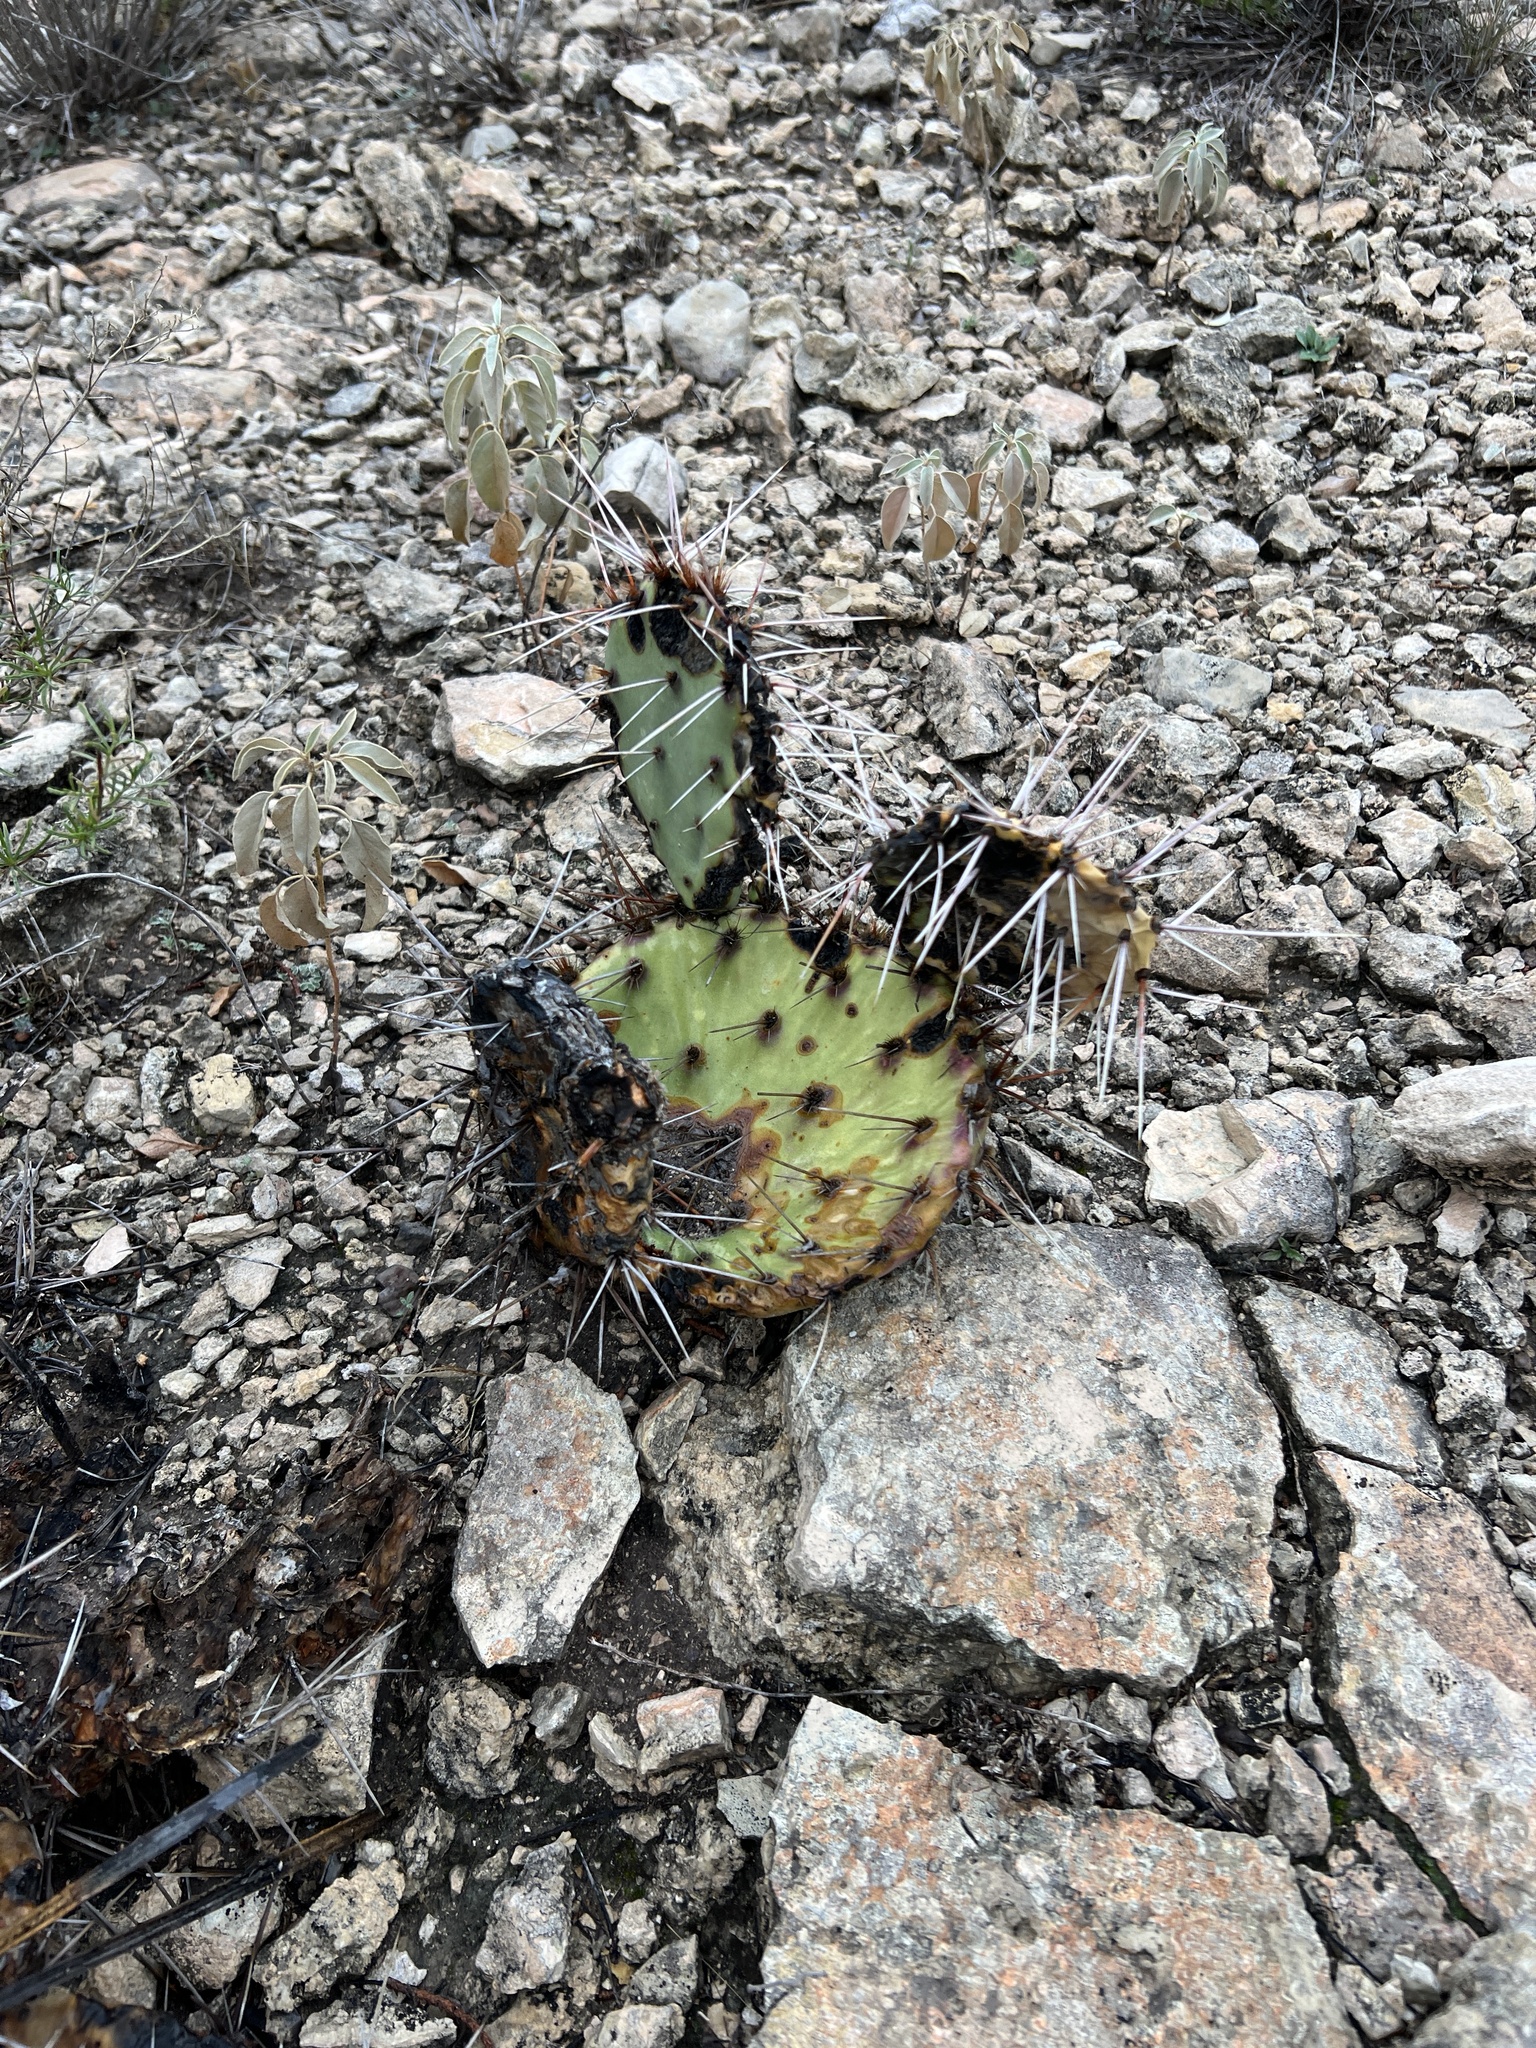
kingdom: Plantae
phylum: Tracheophyta
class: Magnoliopsida
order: Caryophyllales
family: Cactaceae
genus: Opuntia
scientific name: Opuntia phaeacantha
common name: New mexico prickly-pear
